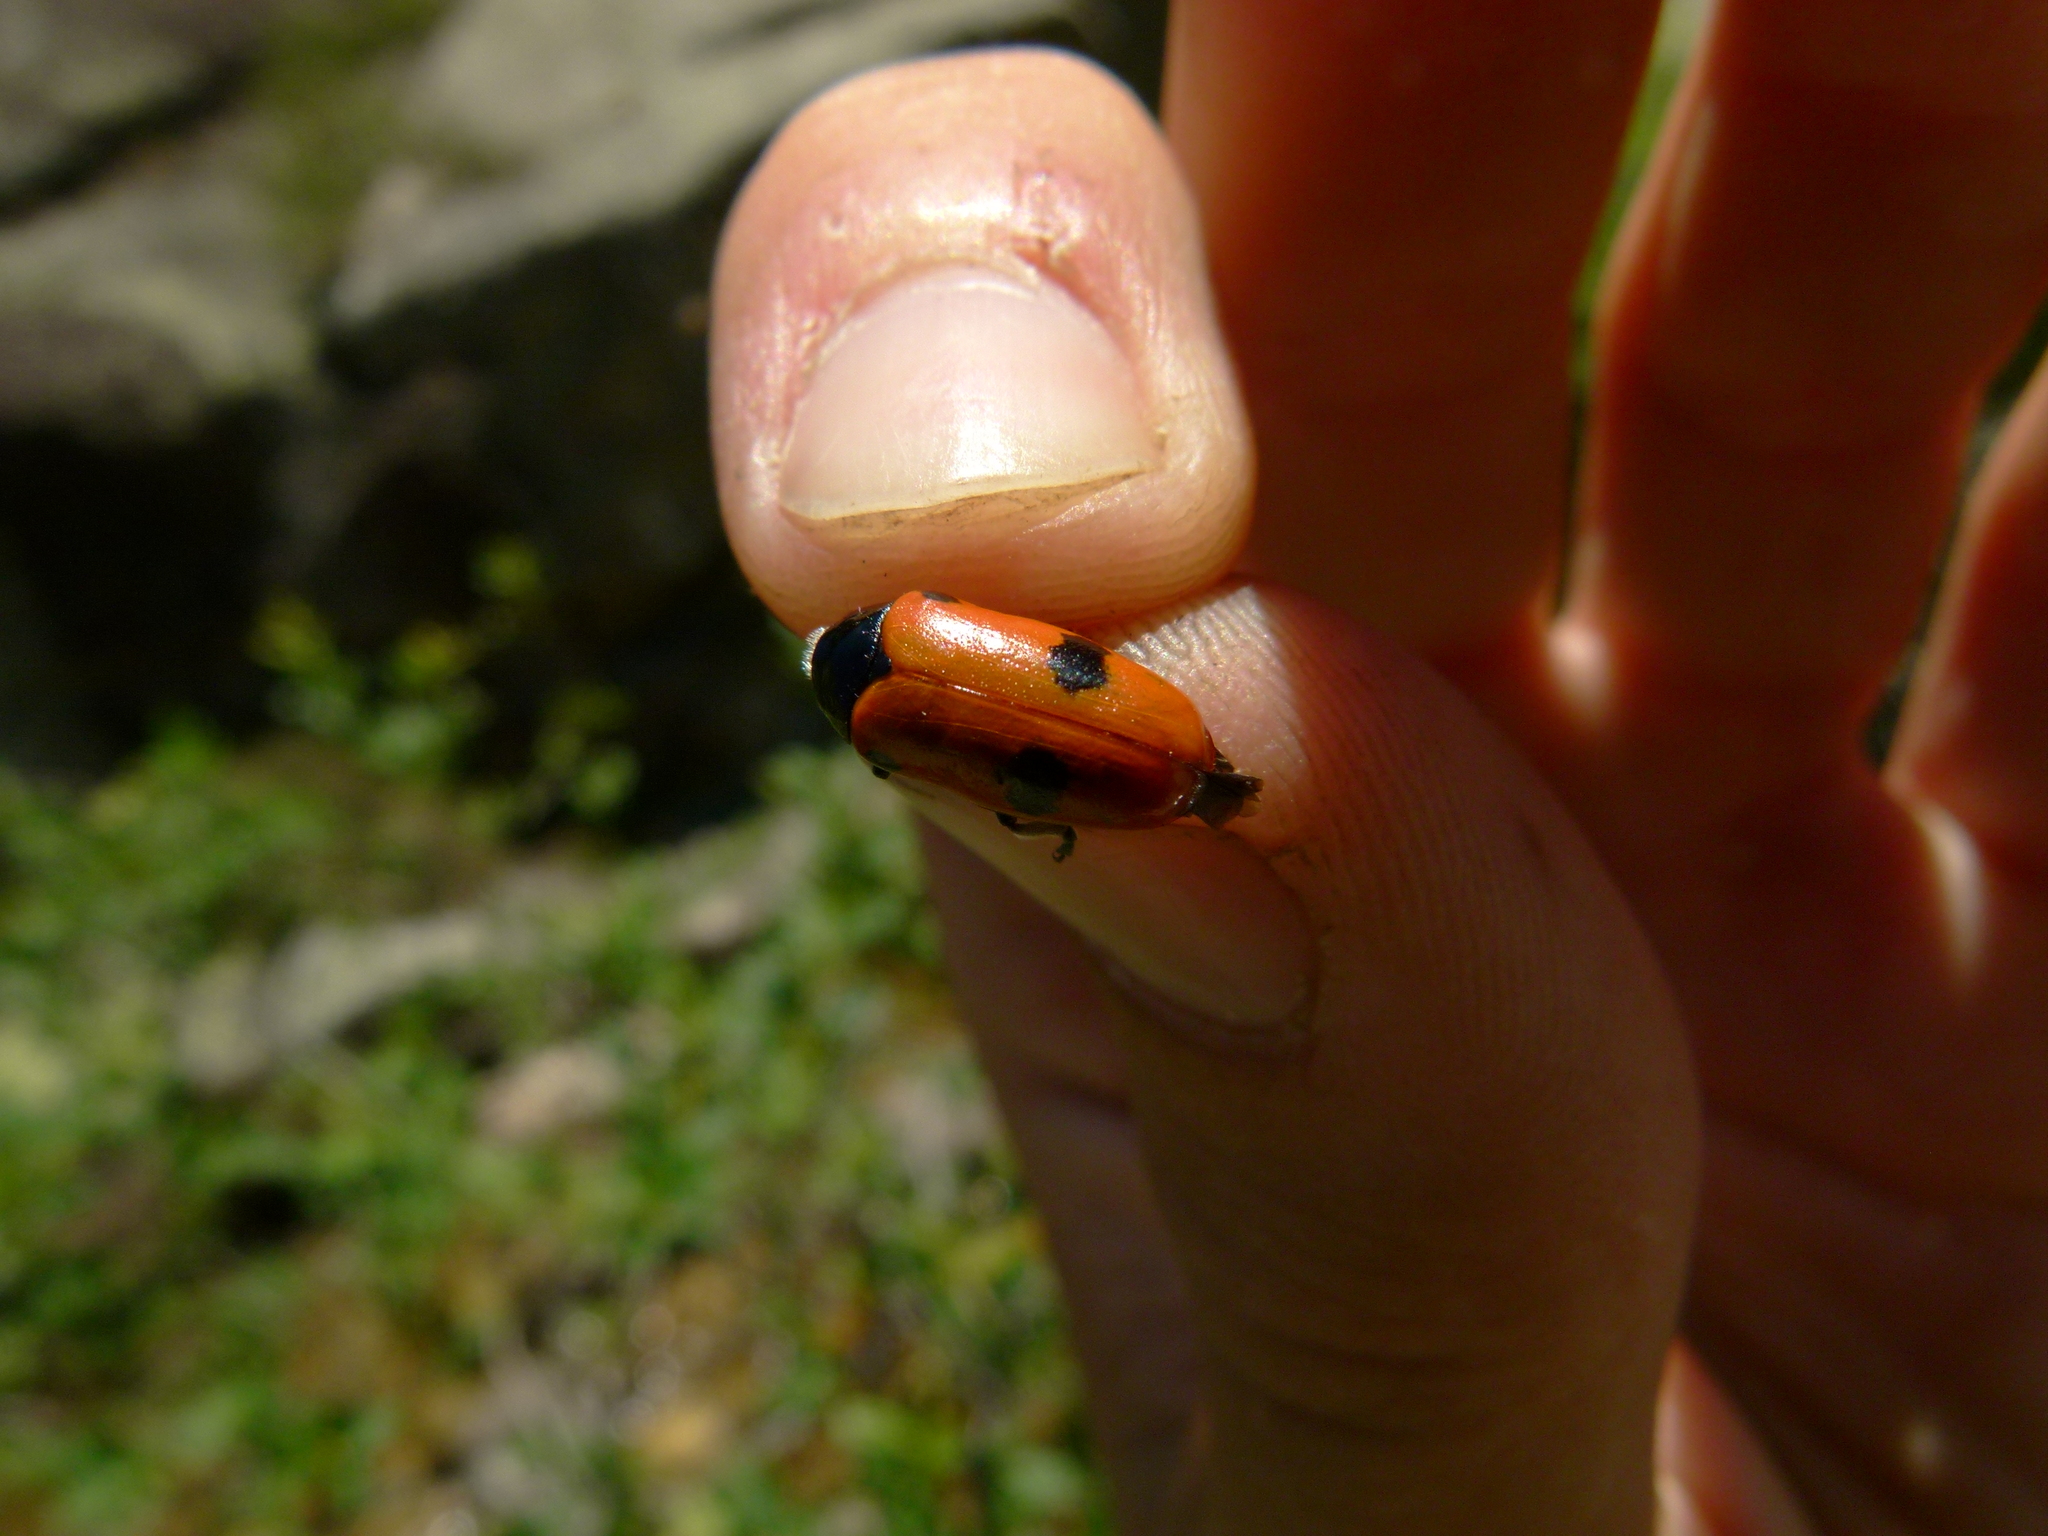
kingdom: Animalia
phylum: Arthropoda
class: Insecta
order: Coleoptera
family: Chrysomelidae
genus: Clytra
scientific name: Clytra laeviuscula
